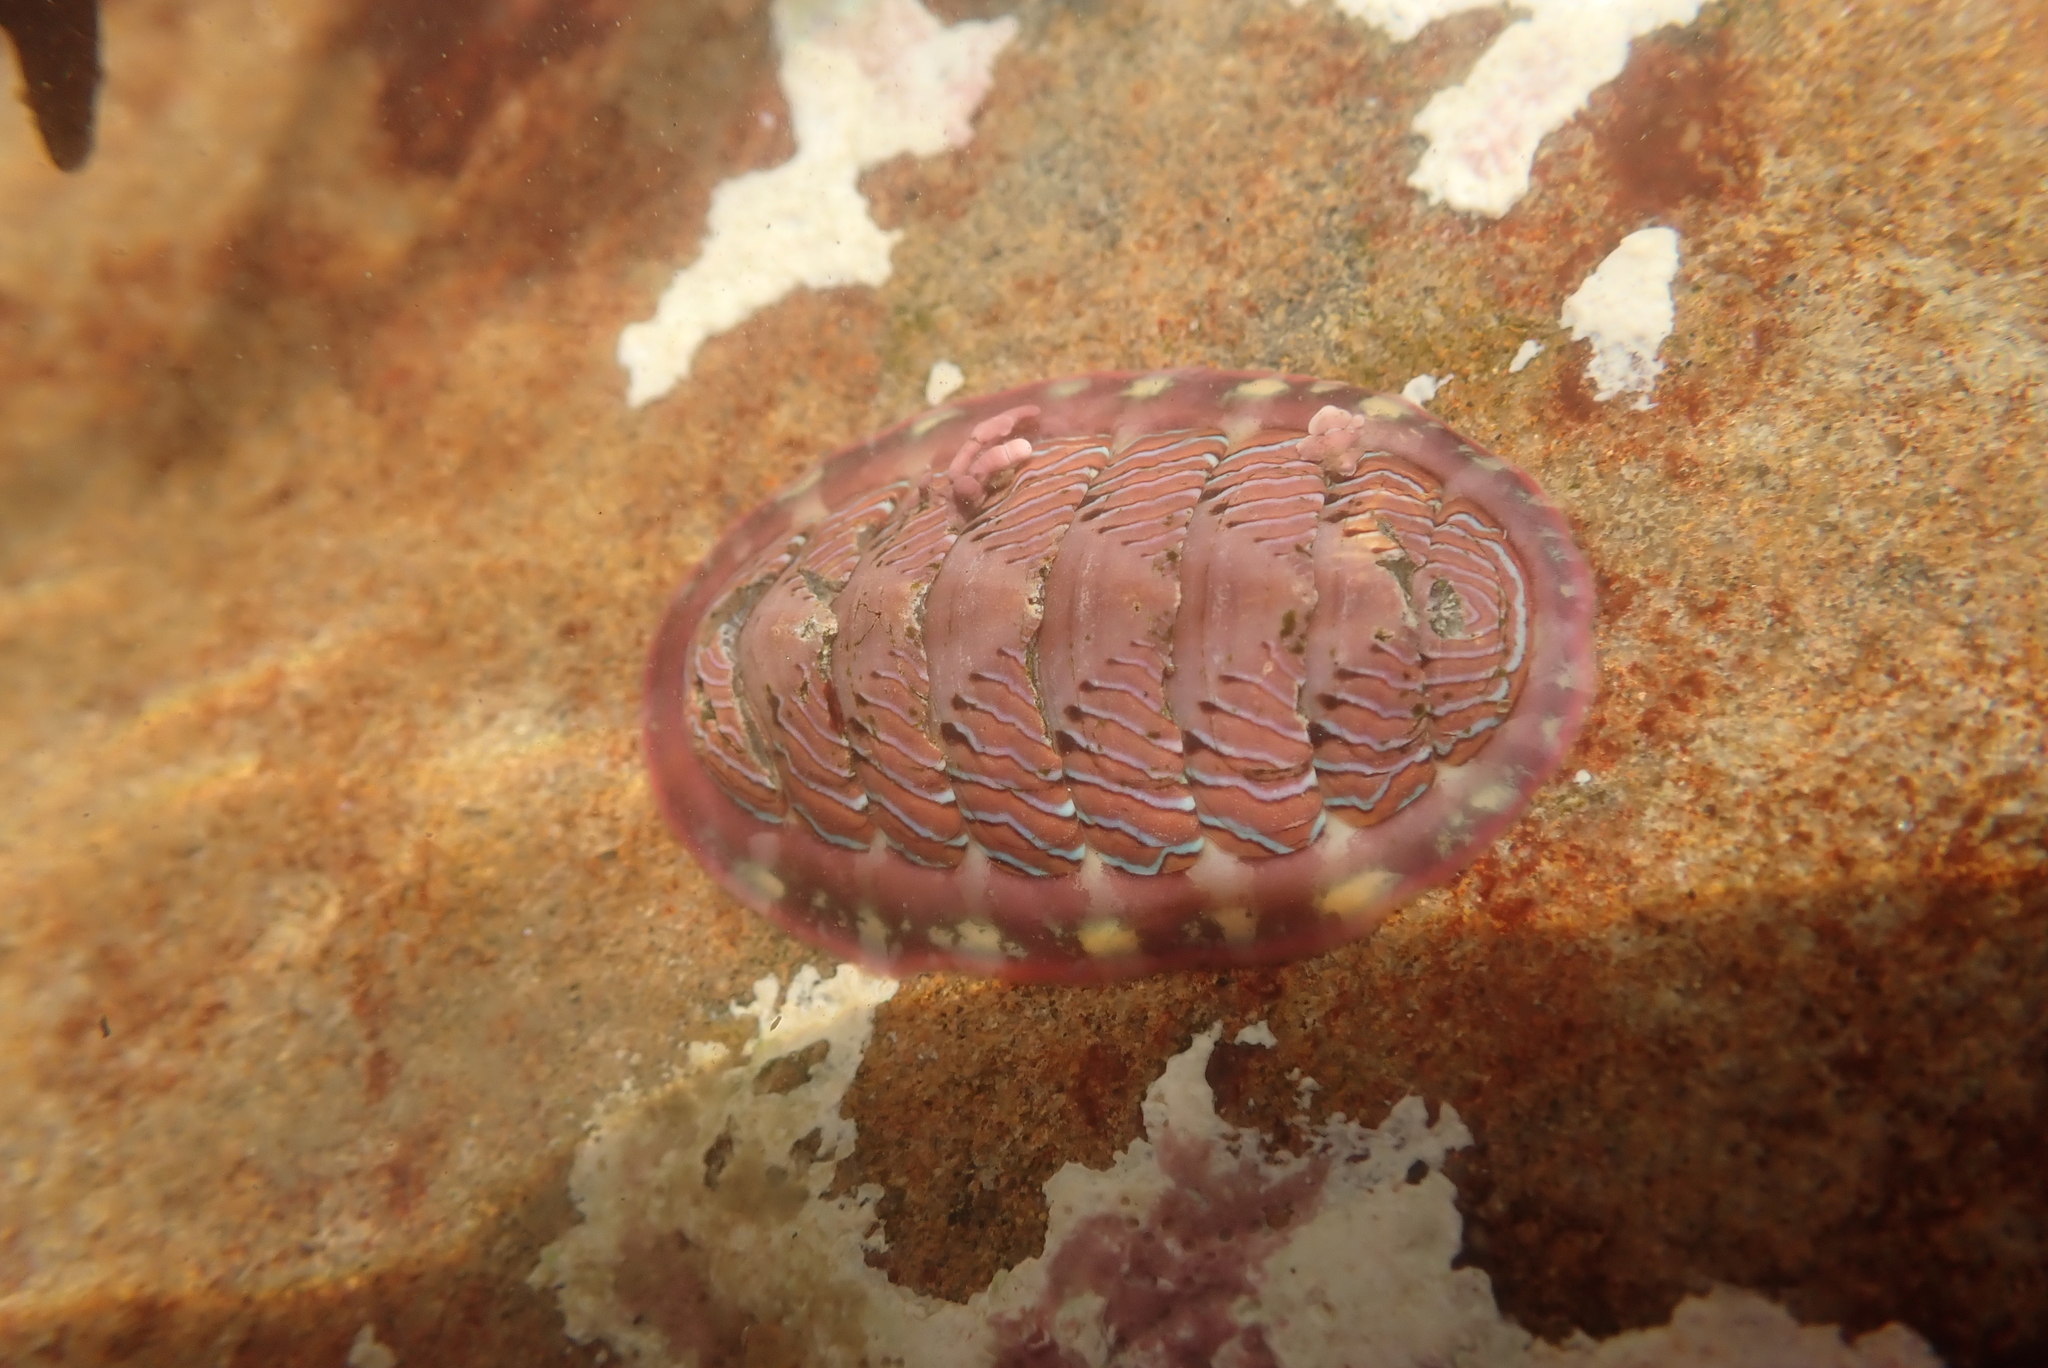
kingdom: Animalia
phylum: Mollusca
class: Polyplacophora
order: Chitonida
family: Tonicellidae
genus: Tonicella
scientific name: Tonicella lineata
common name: Lined chiton
